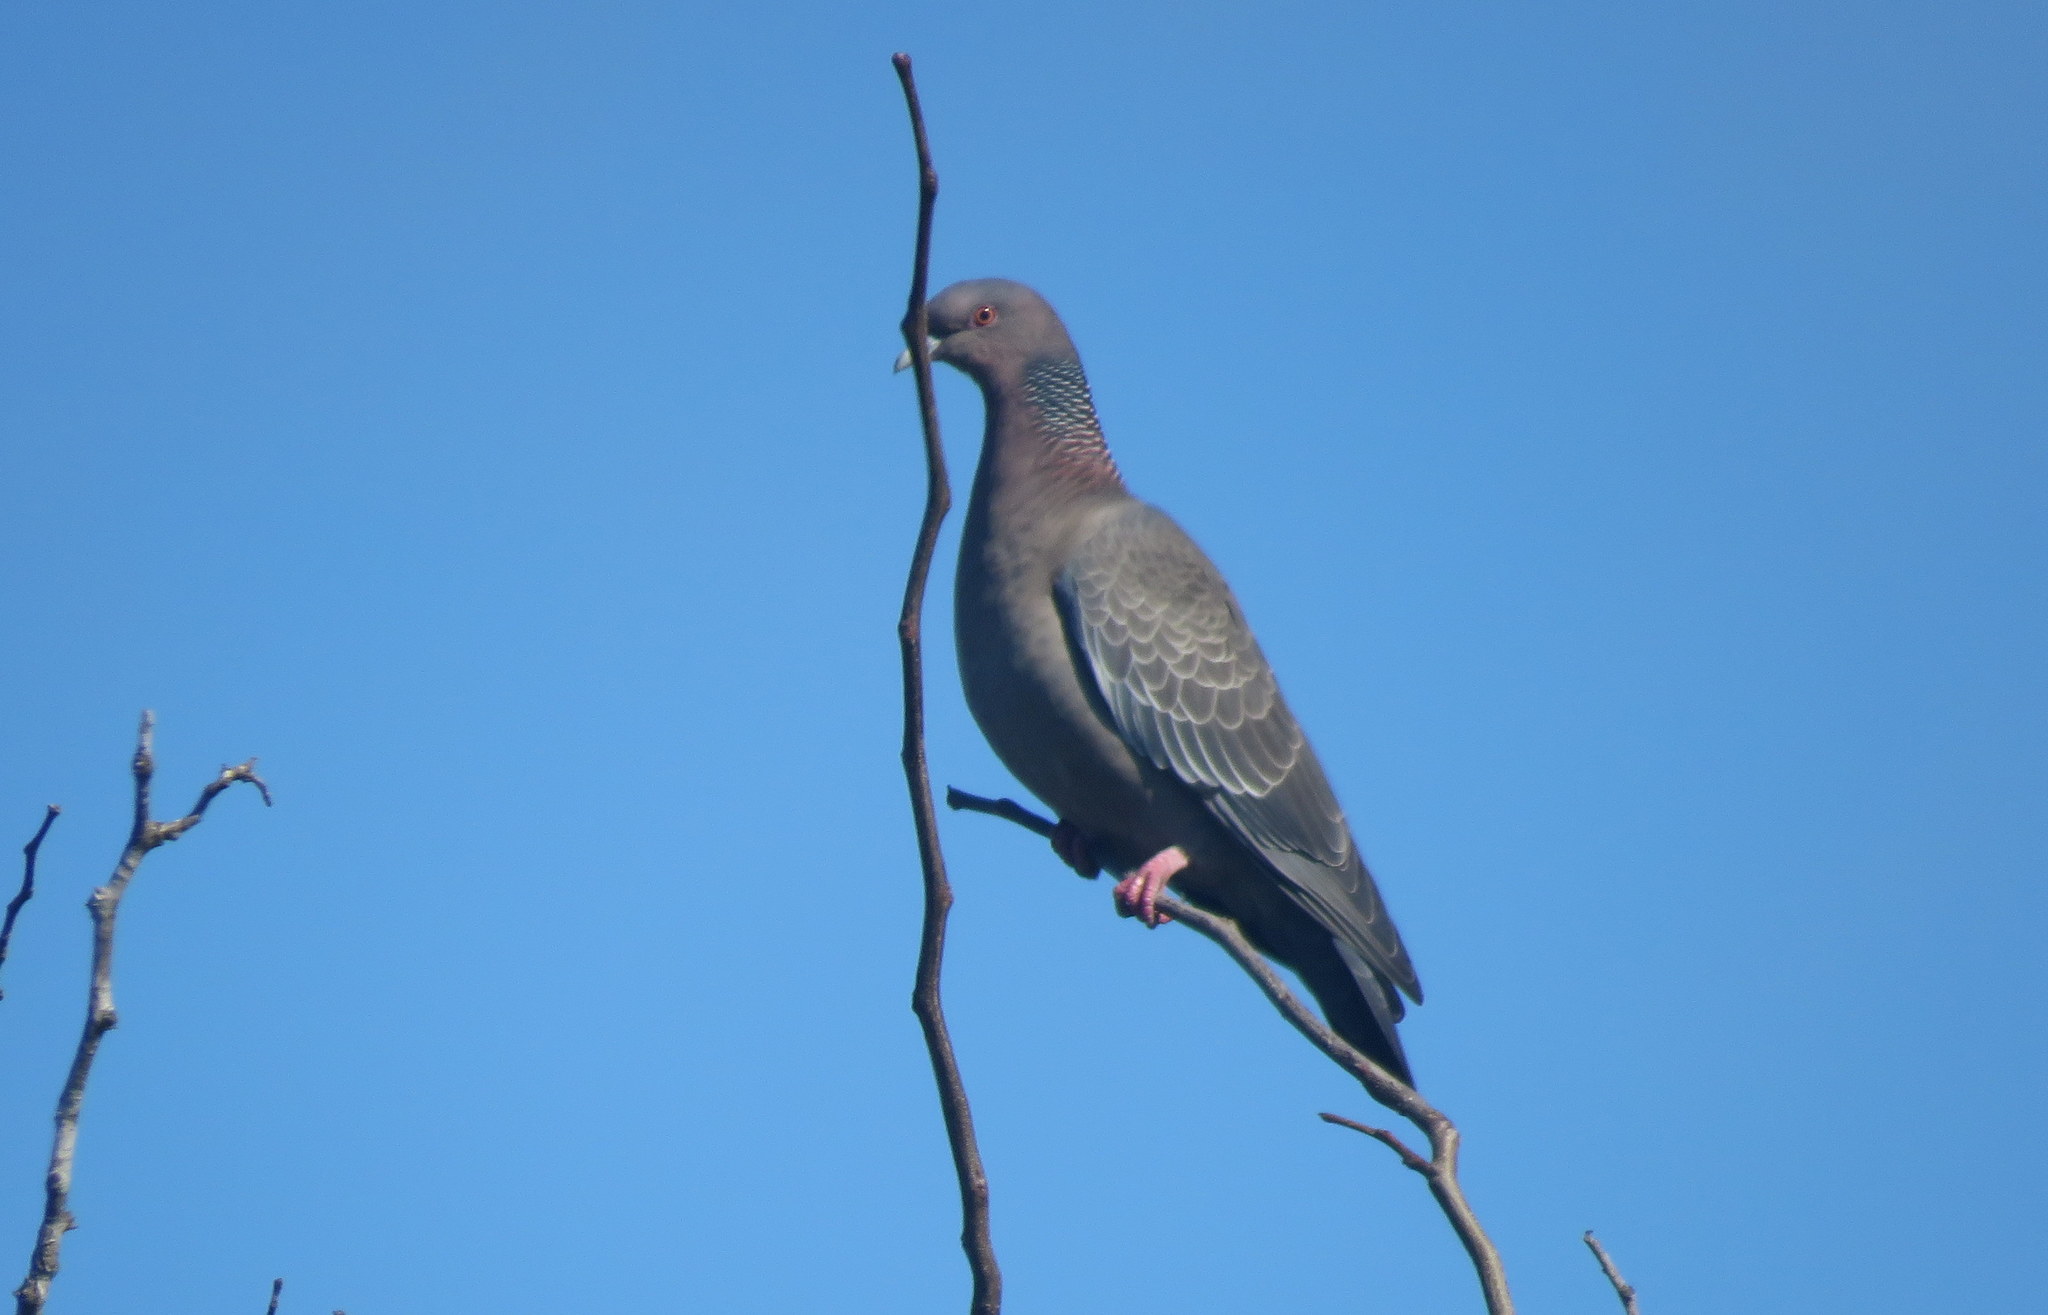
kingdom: Animalia
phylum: Chordata
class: Aves
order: Columbiformes
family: Columbidae
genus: Patagioenas
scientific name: Patagioenas picazuro
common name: Picazuro pigeon
